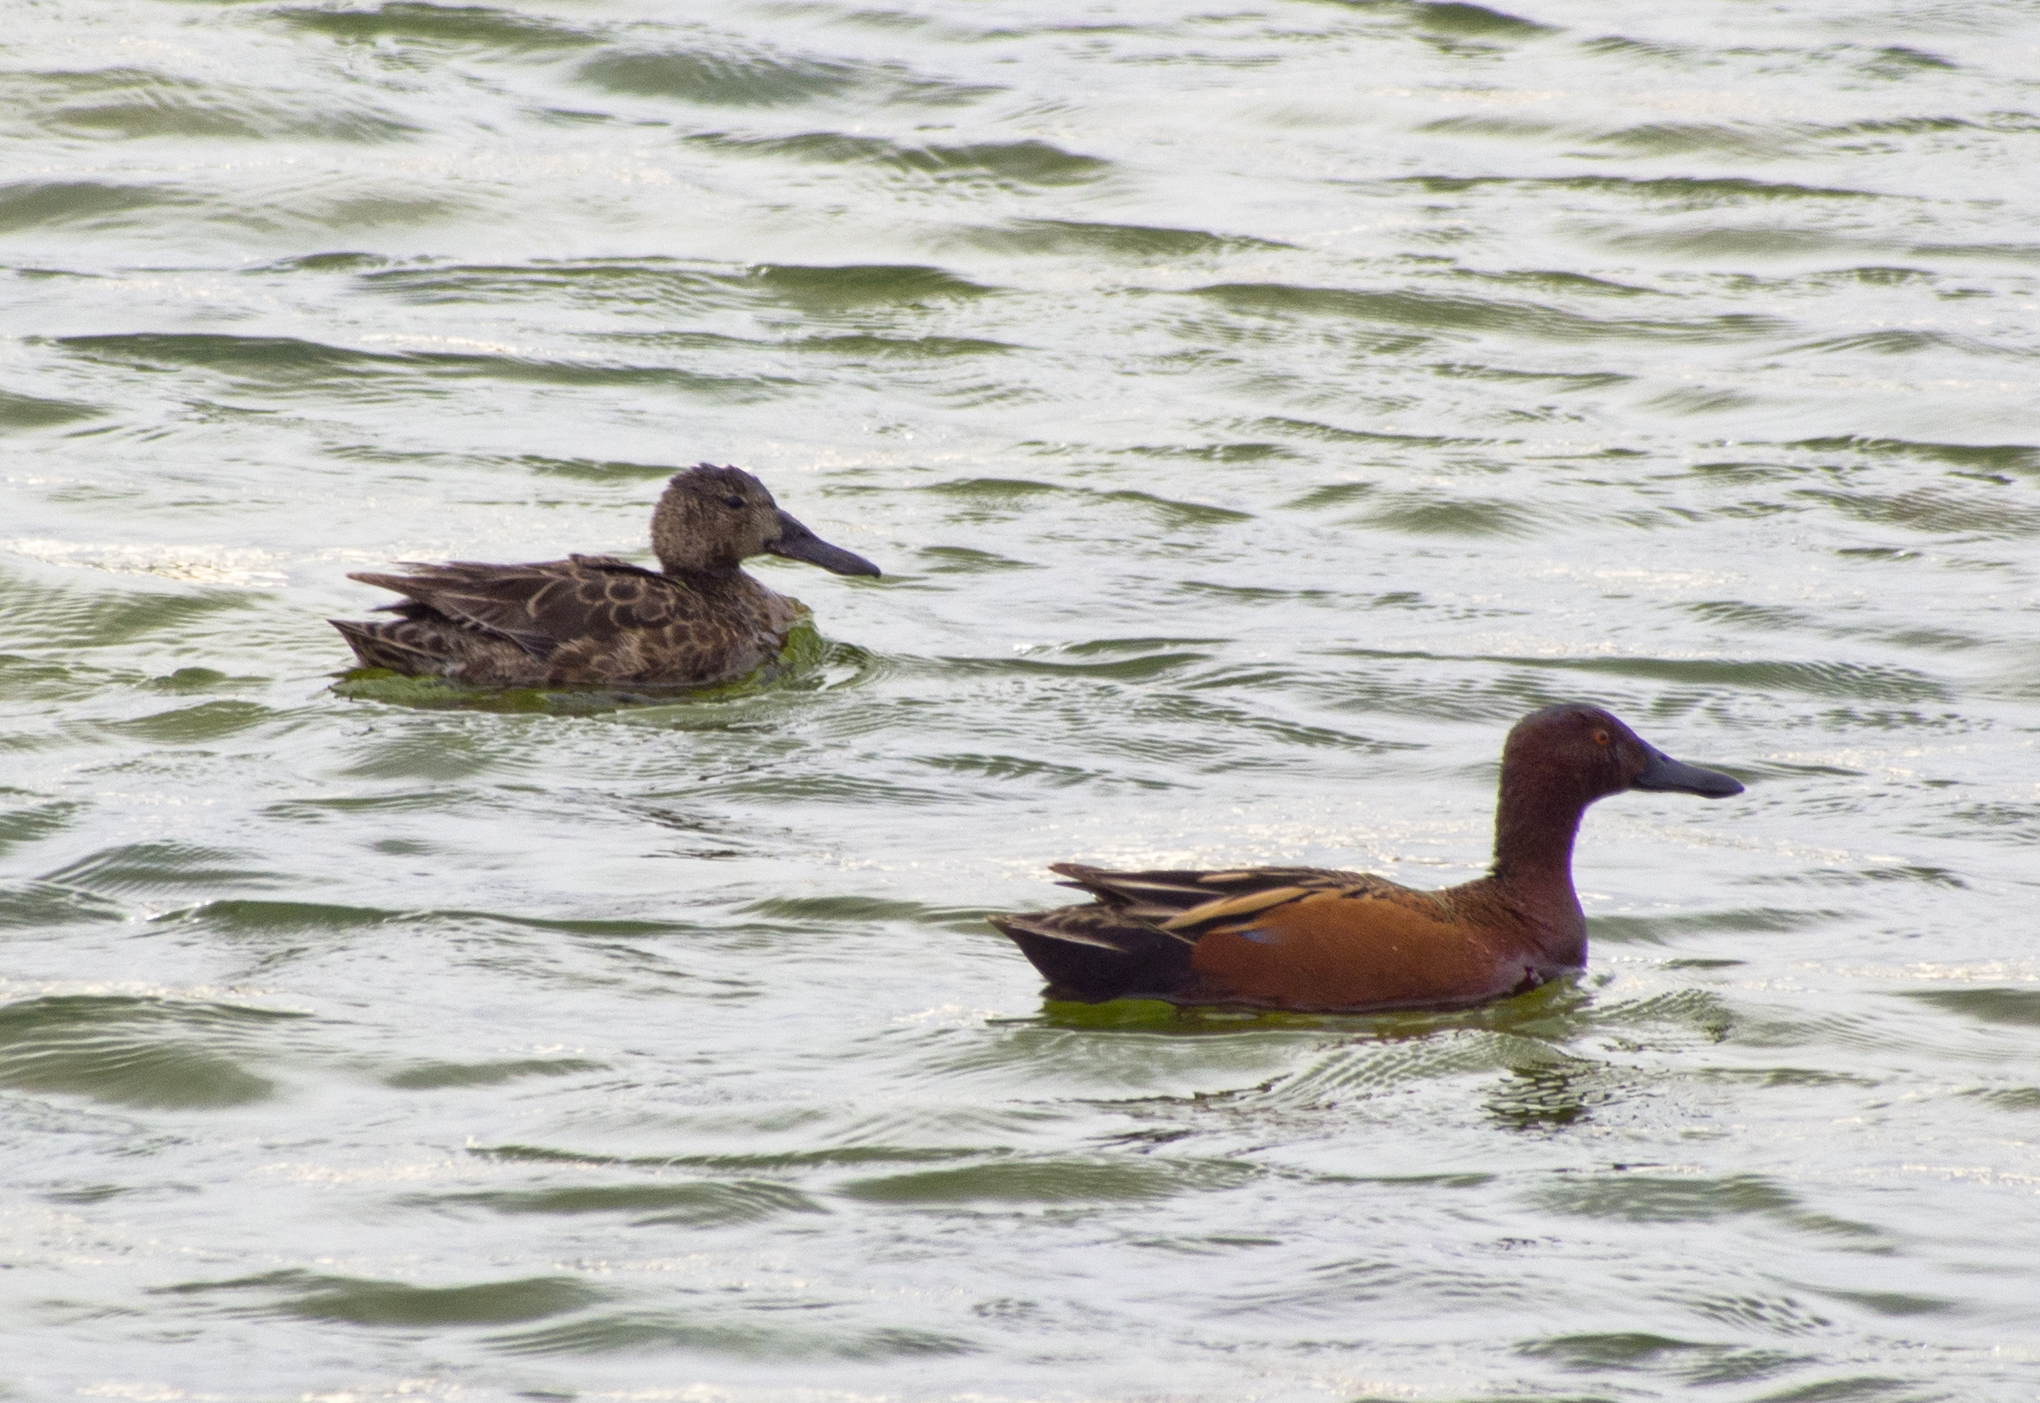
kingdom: Animalia
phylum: Chordata
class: Aves
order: Anseriformes
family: Anatidae
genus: Spatula
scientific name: Spatula cyanoptera
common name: Cinnamon teal
